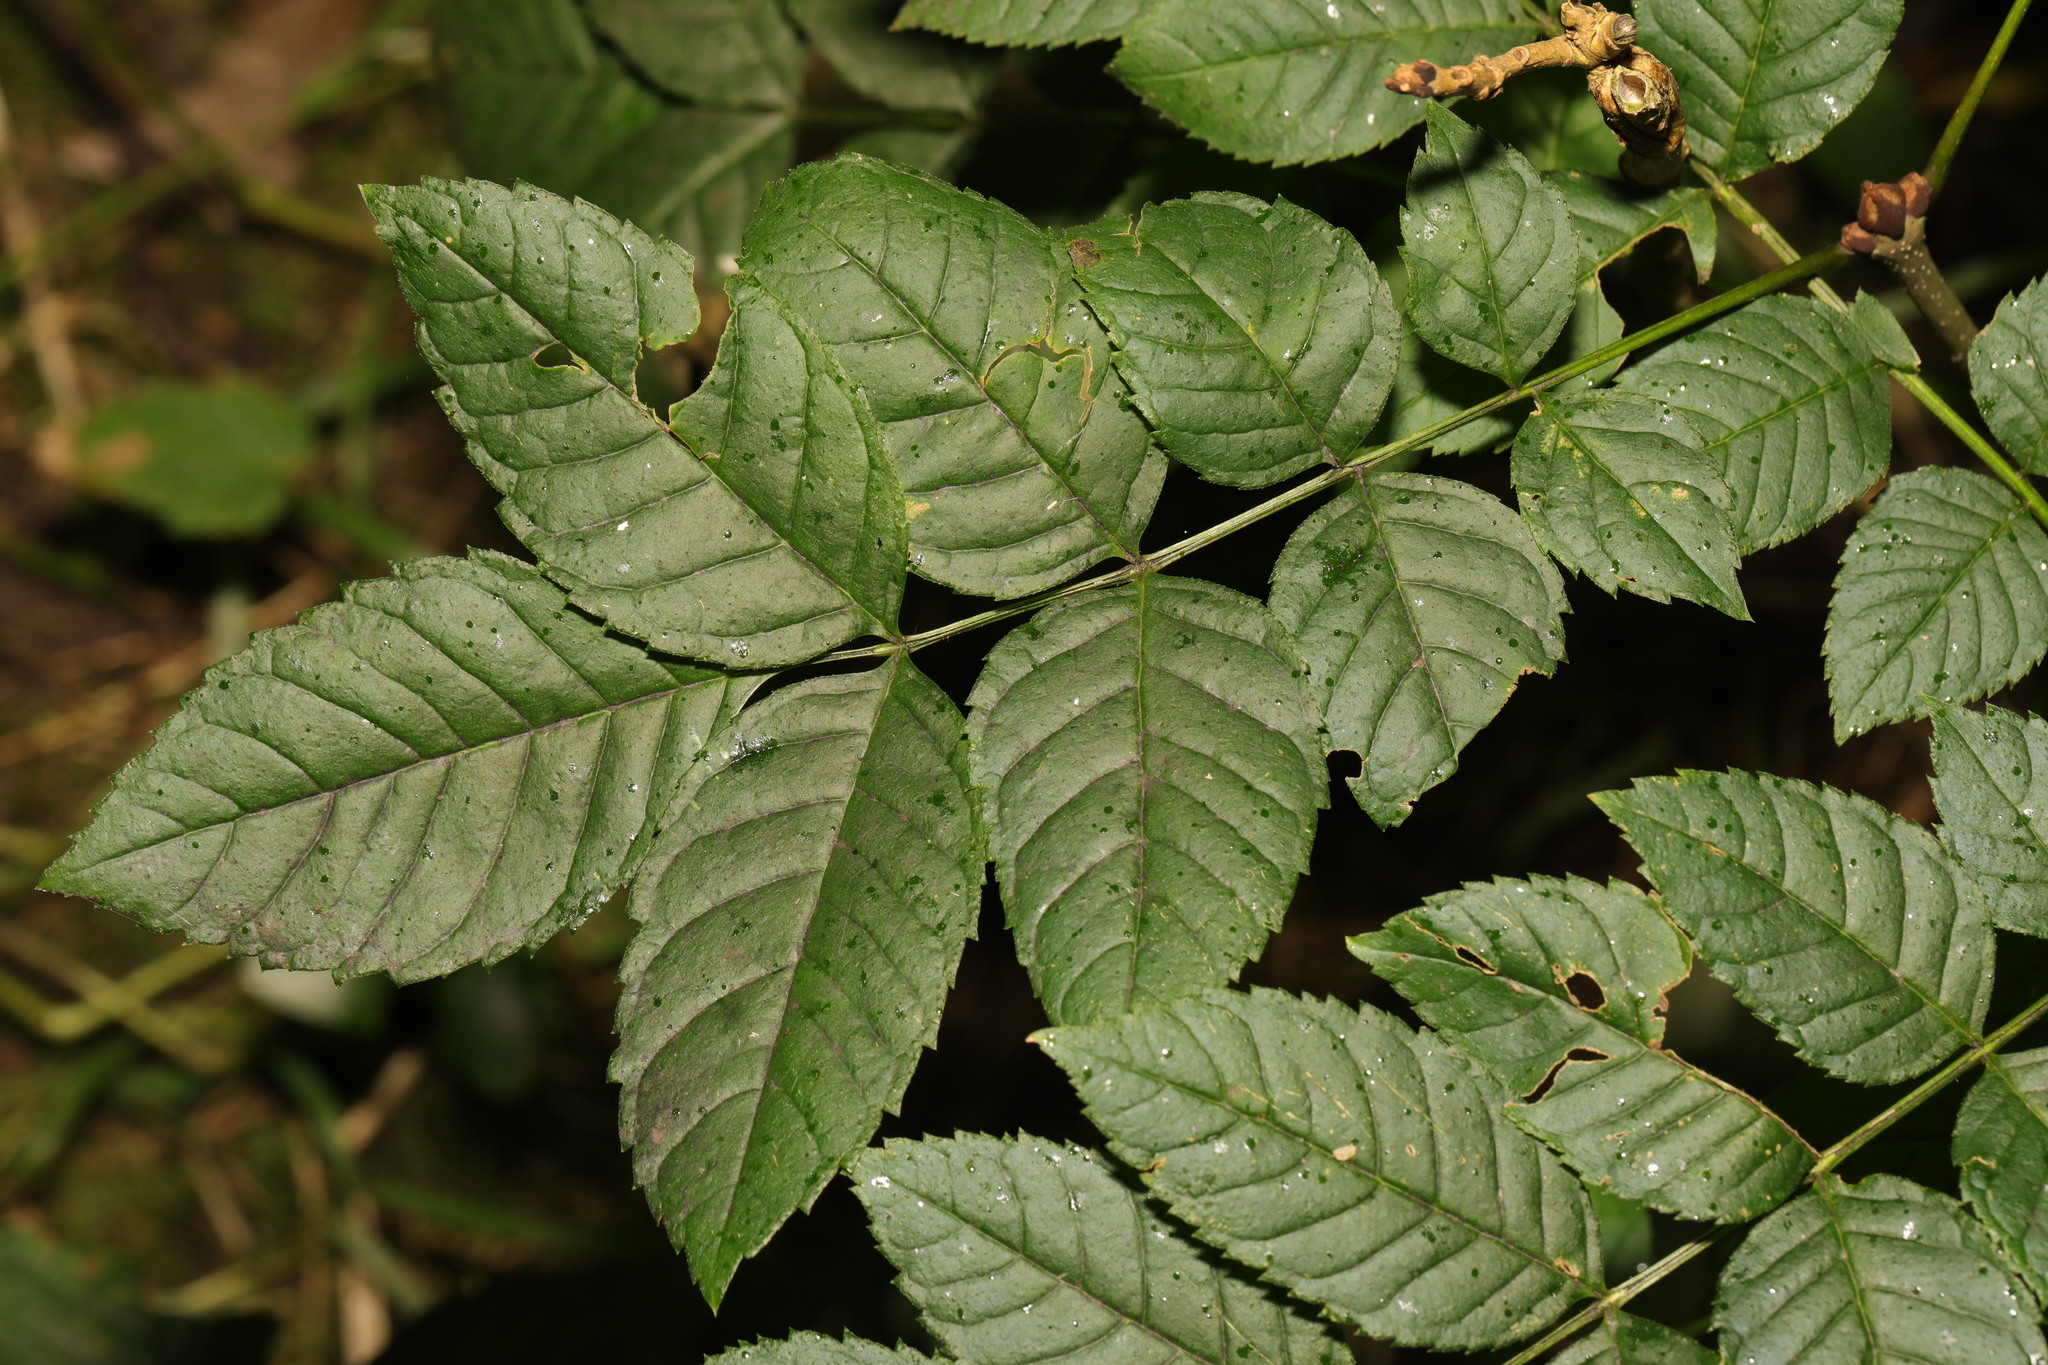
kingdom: Plantae
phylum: Tracheophyta
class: Magnoliopsida
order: Lamiales
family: Oleaceae
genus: Fraxinus
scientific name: Fraxinus excelsior
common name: European ash
